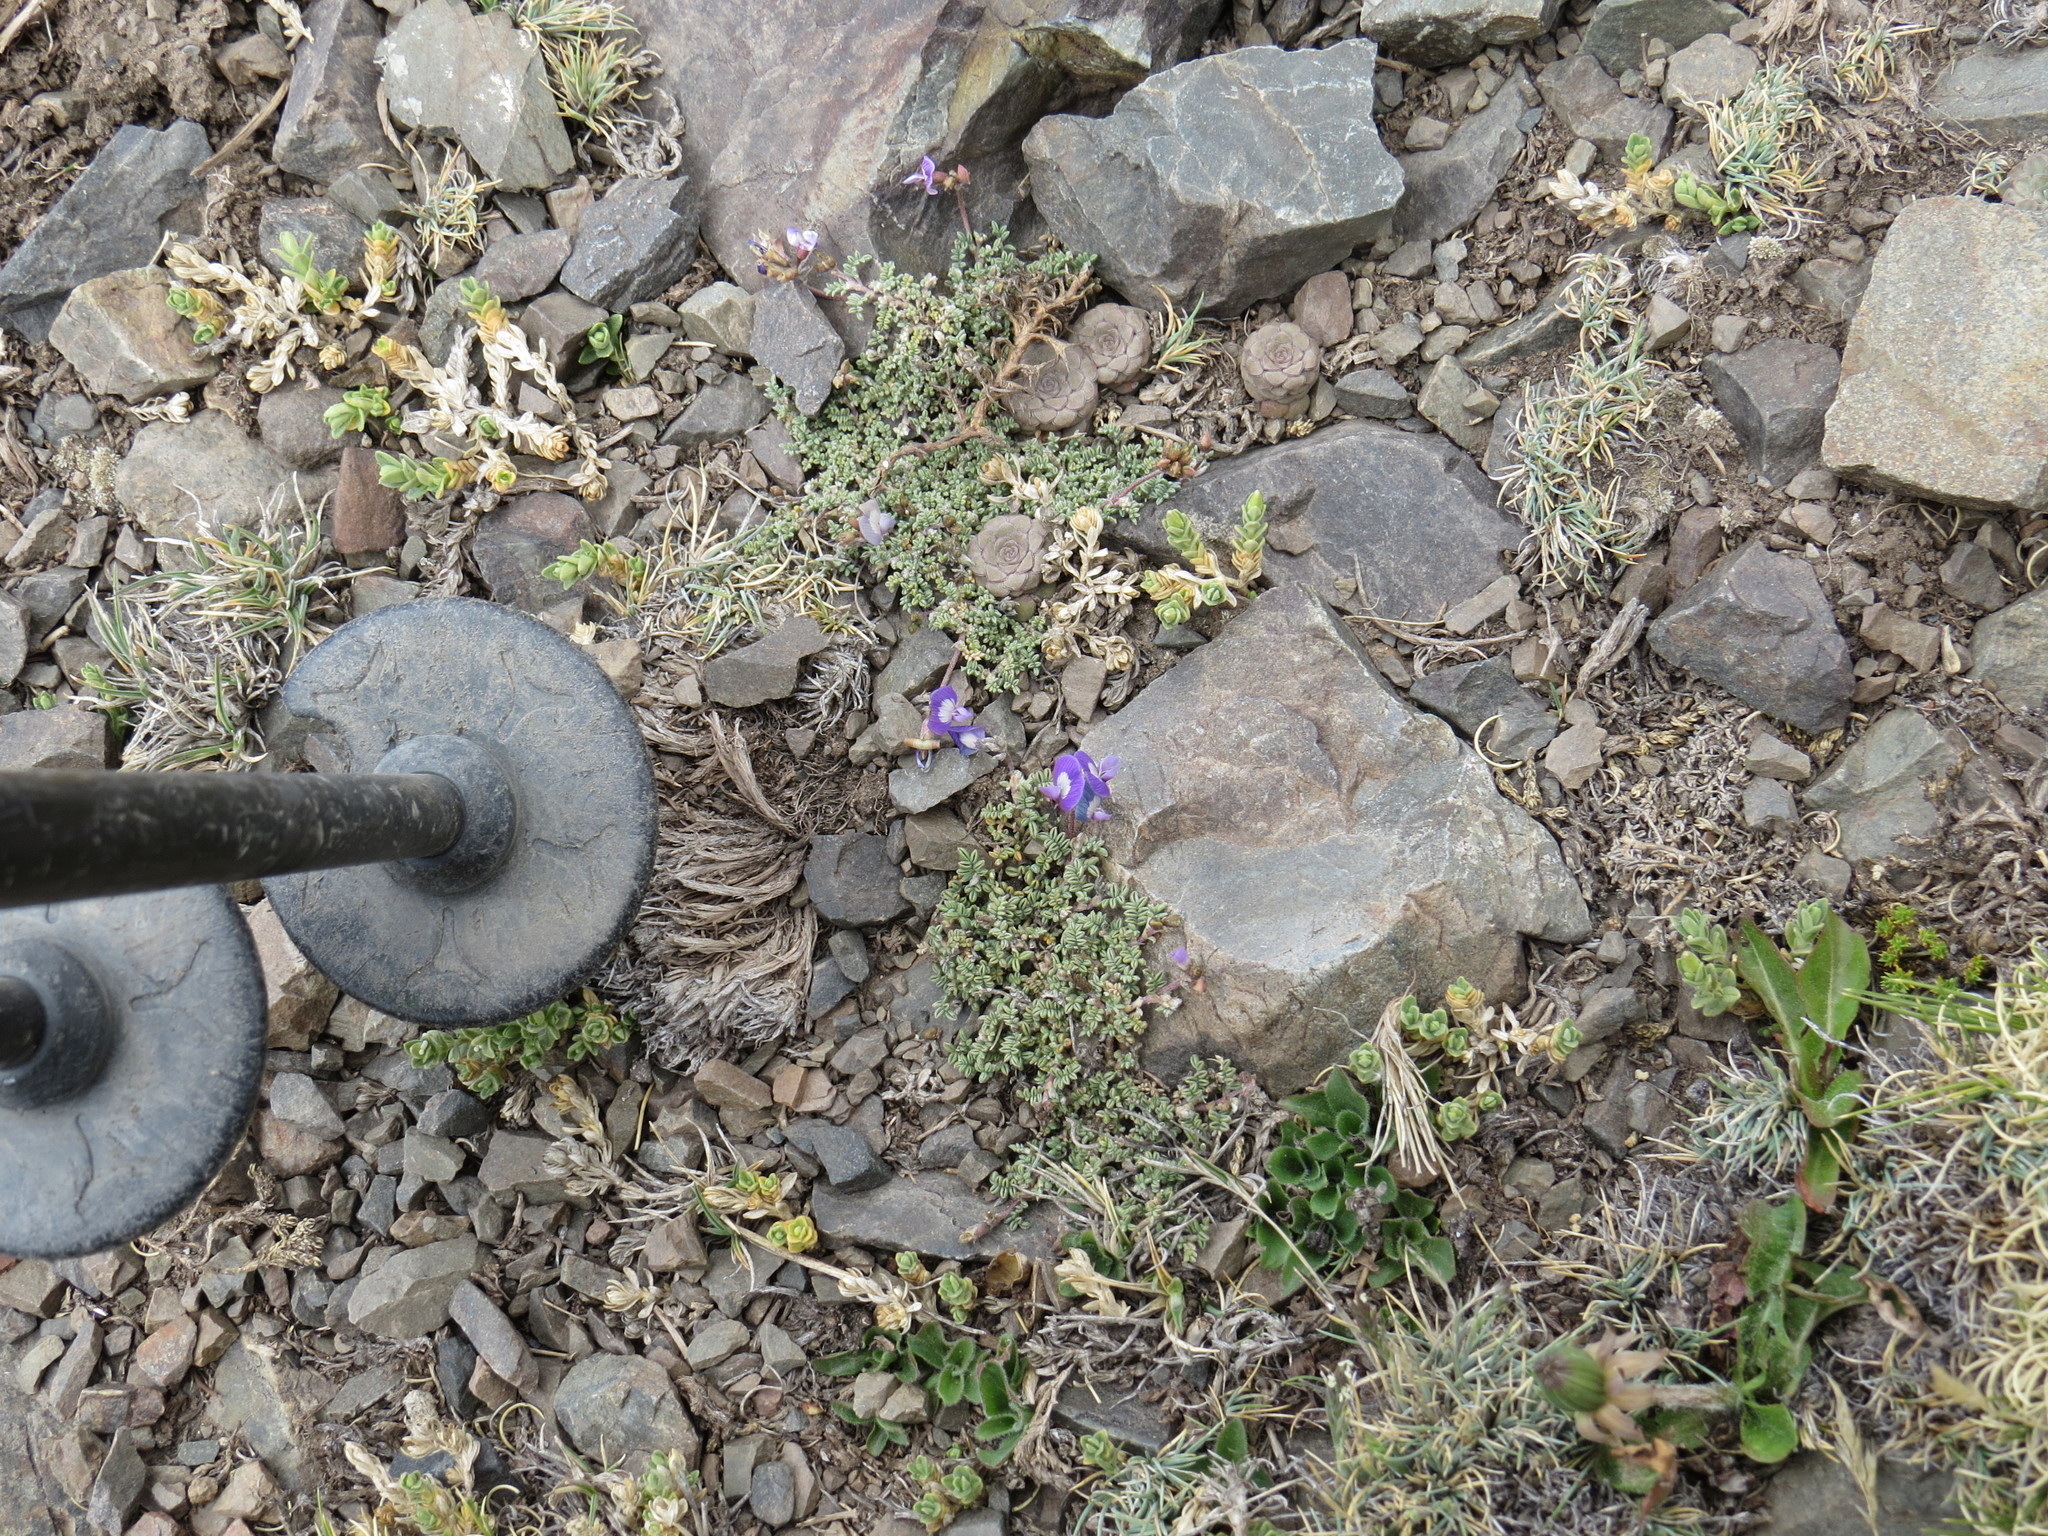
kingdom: Plantae
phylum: Tracheophyta
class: Magnoliopsida
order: Fabales
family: Fabaceae
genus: Astragalus
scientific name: Astragalus arnottianus
